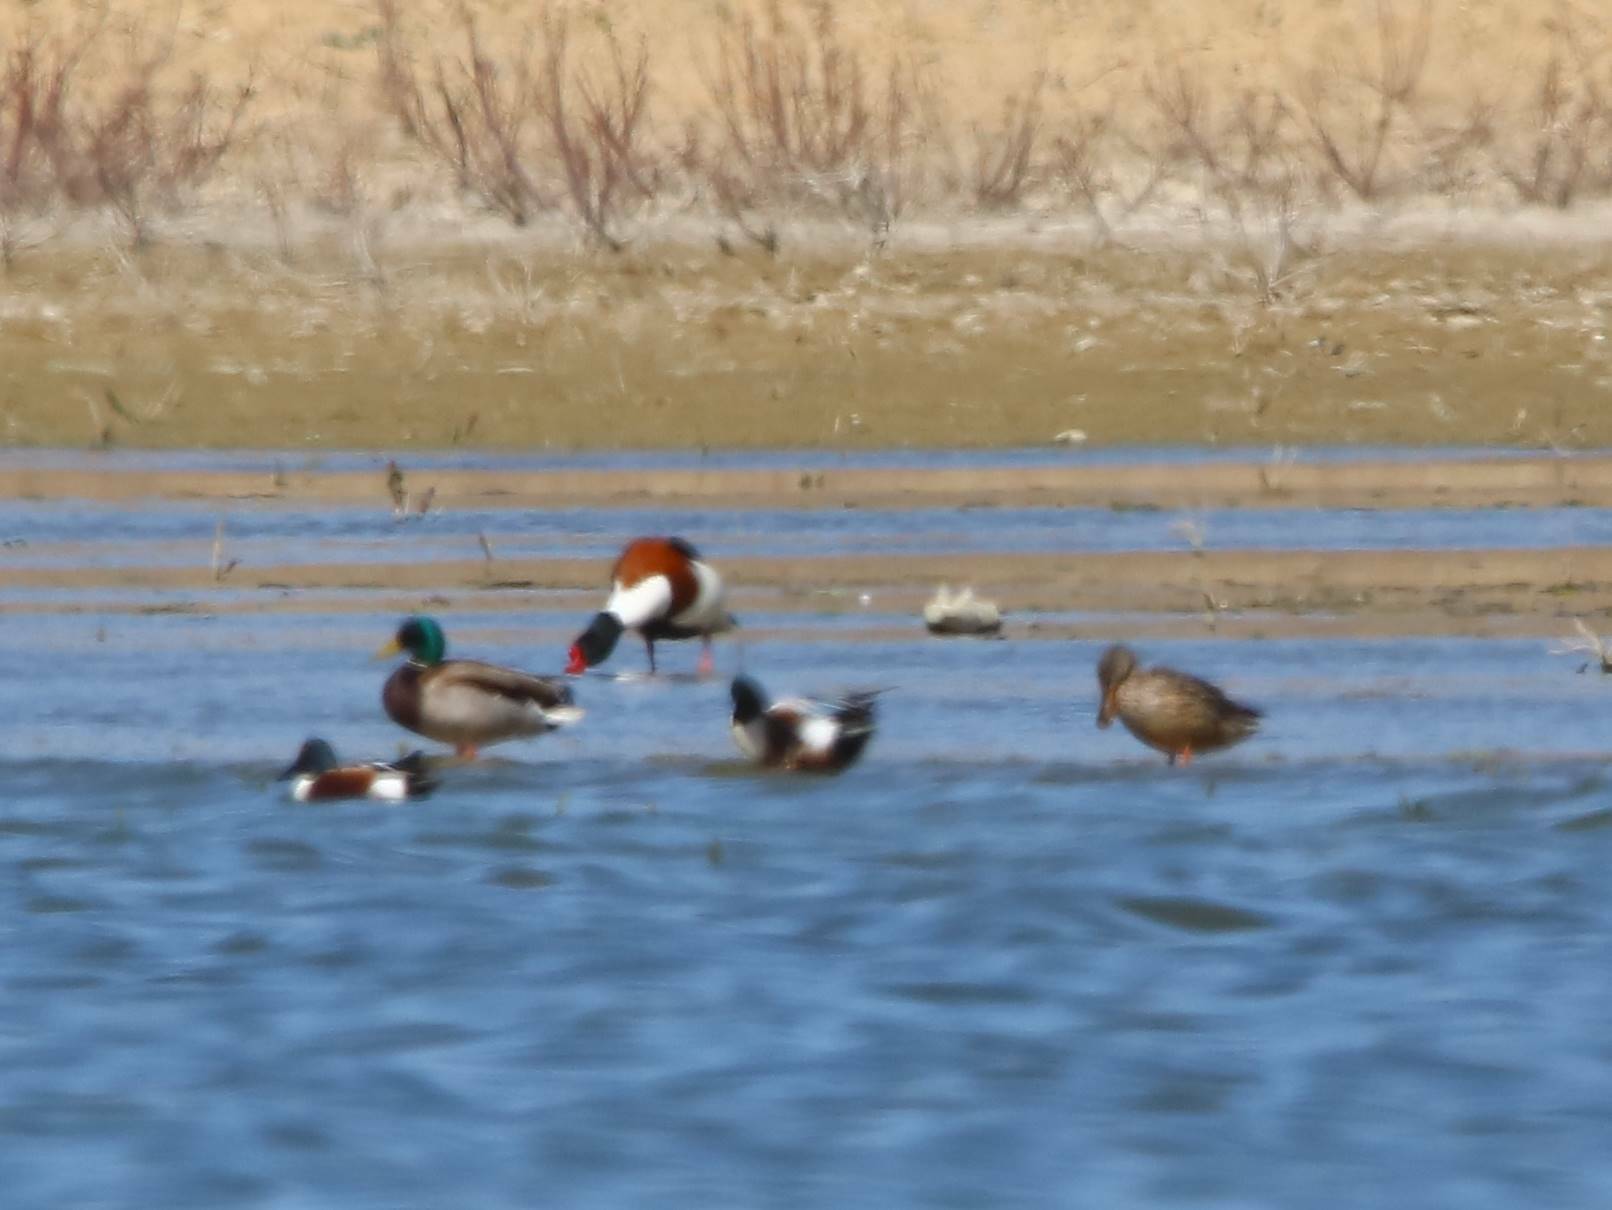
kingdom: Animalia
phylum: Chordata
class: Aves
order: Anseriformes
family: Anatidae
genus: Tadorna
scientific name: Tadorna tadorna
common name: Common shelduck
